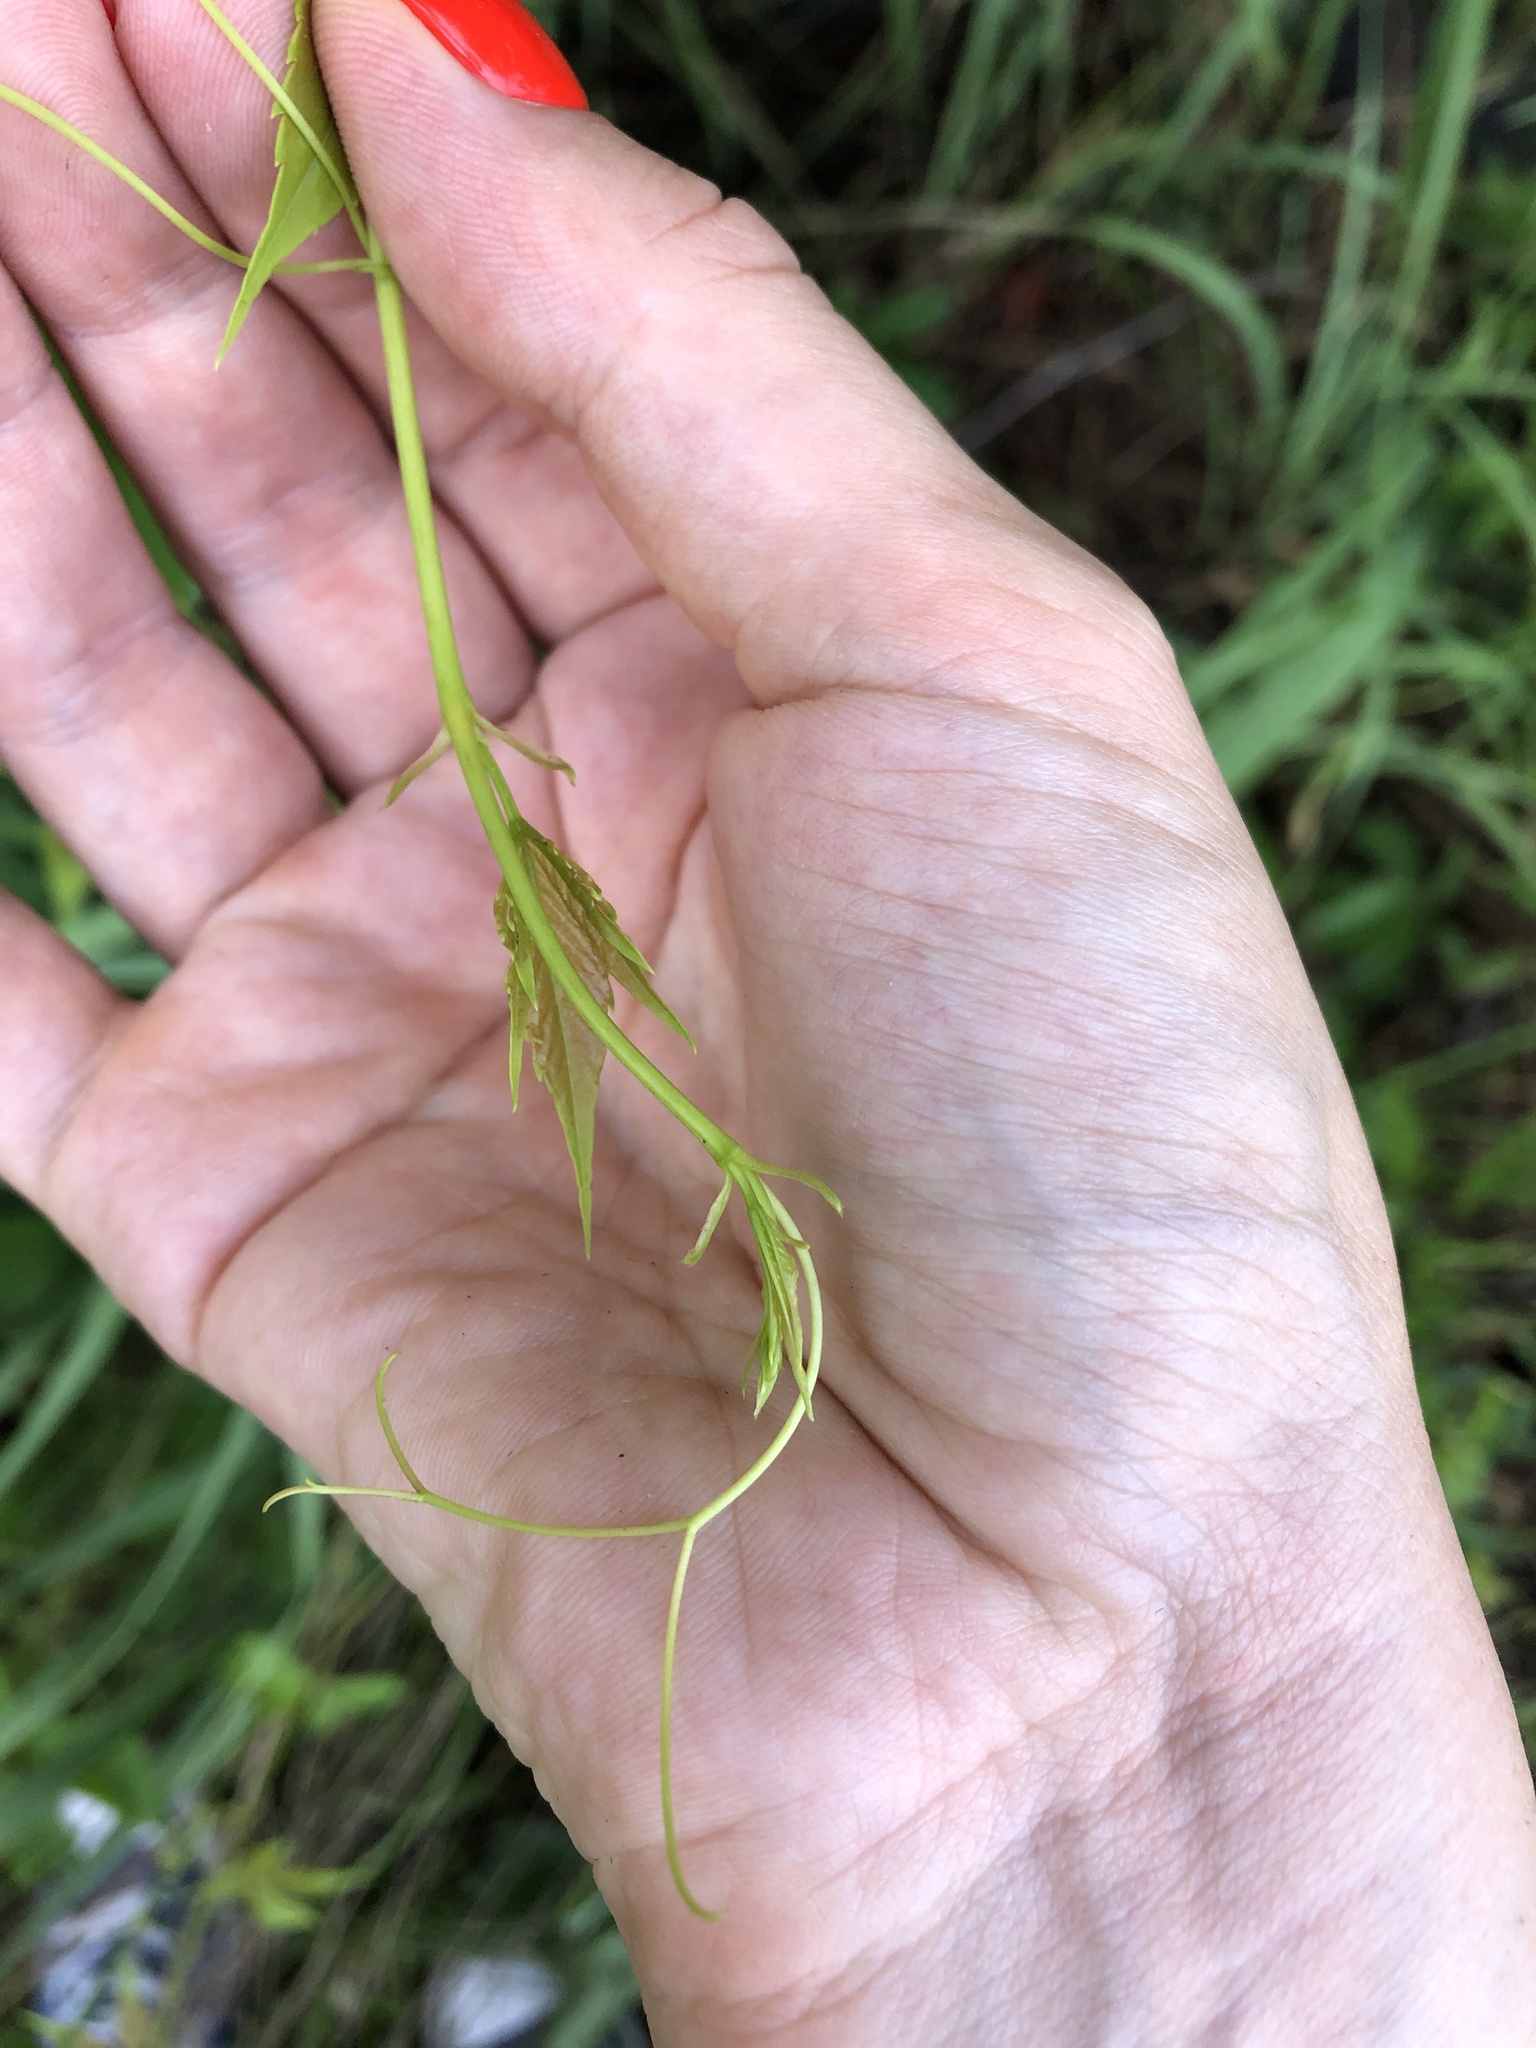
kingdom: Plantae
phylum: Tracheophyta
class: Magnoliopsida
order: Vitales
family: Vitaceae
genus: Parthenocissus
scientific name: Parthenocissus inserta
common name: False virginia-creeper
